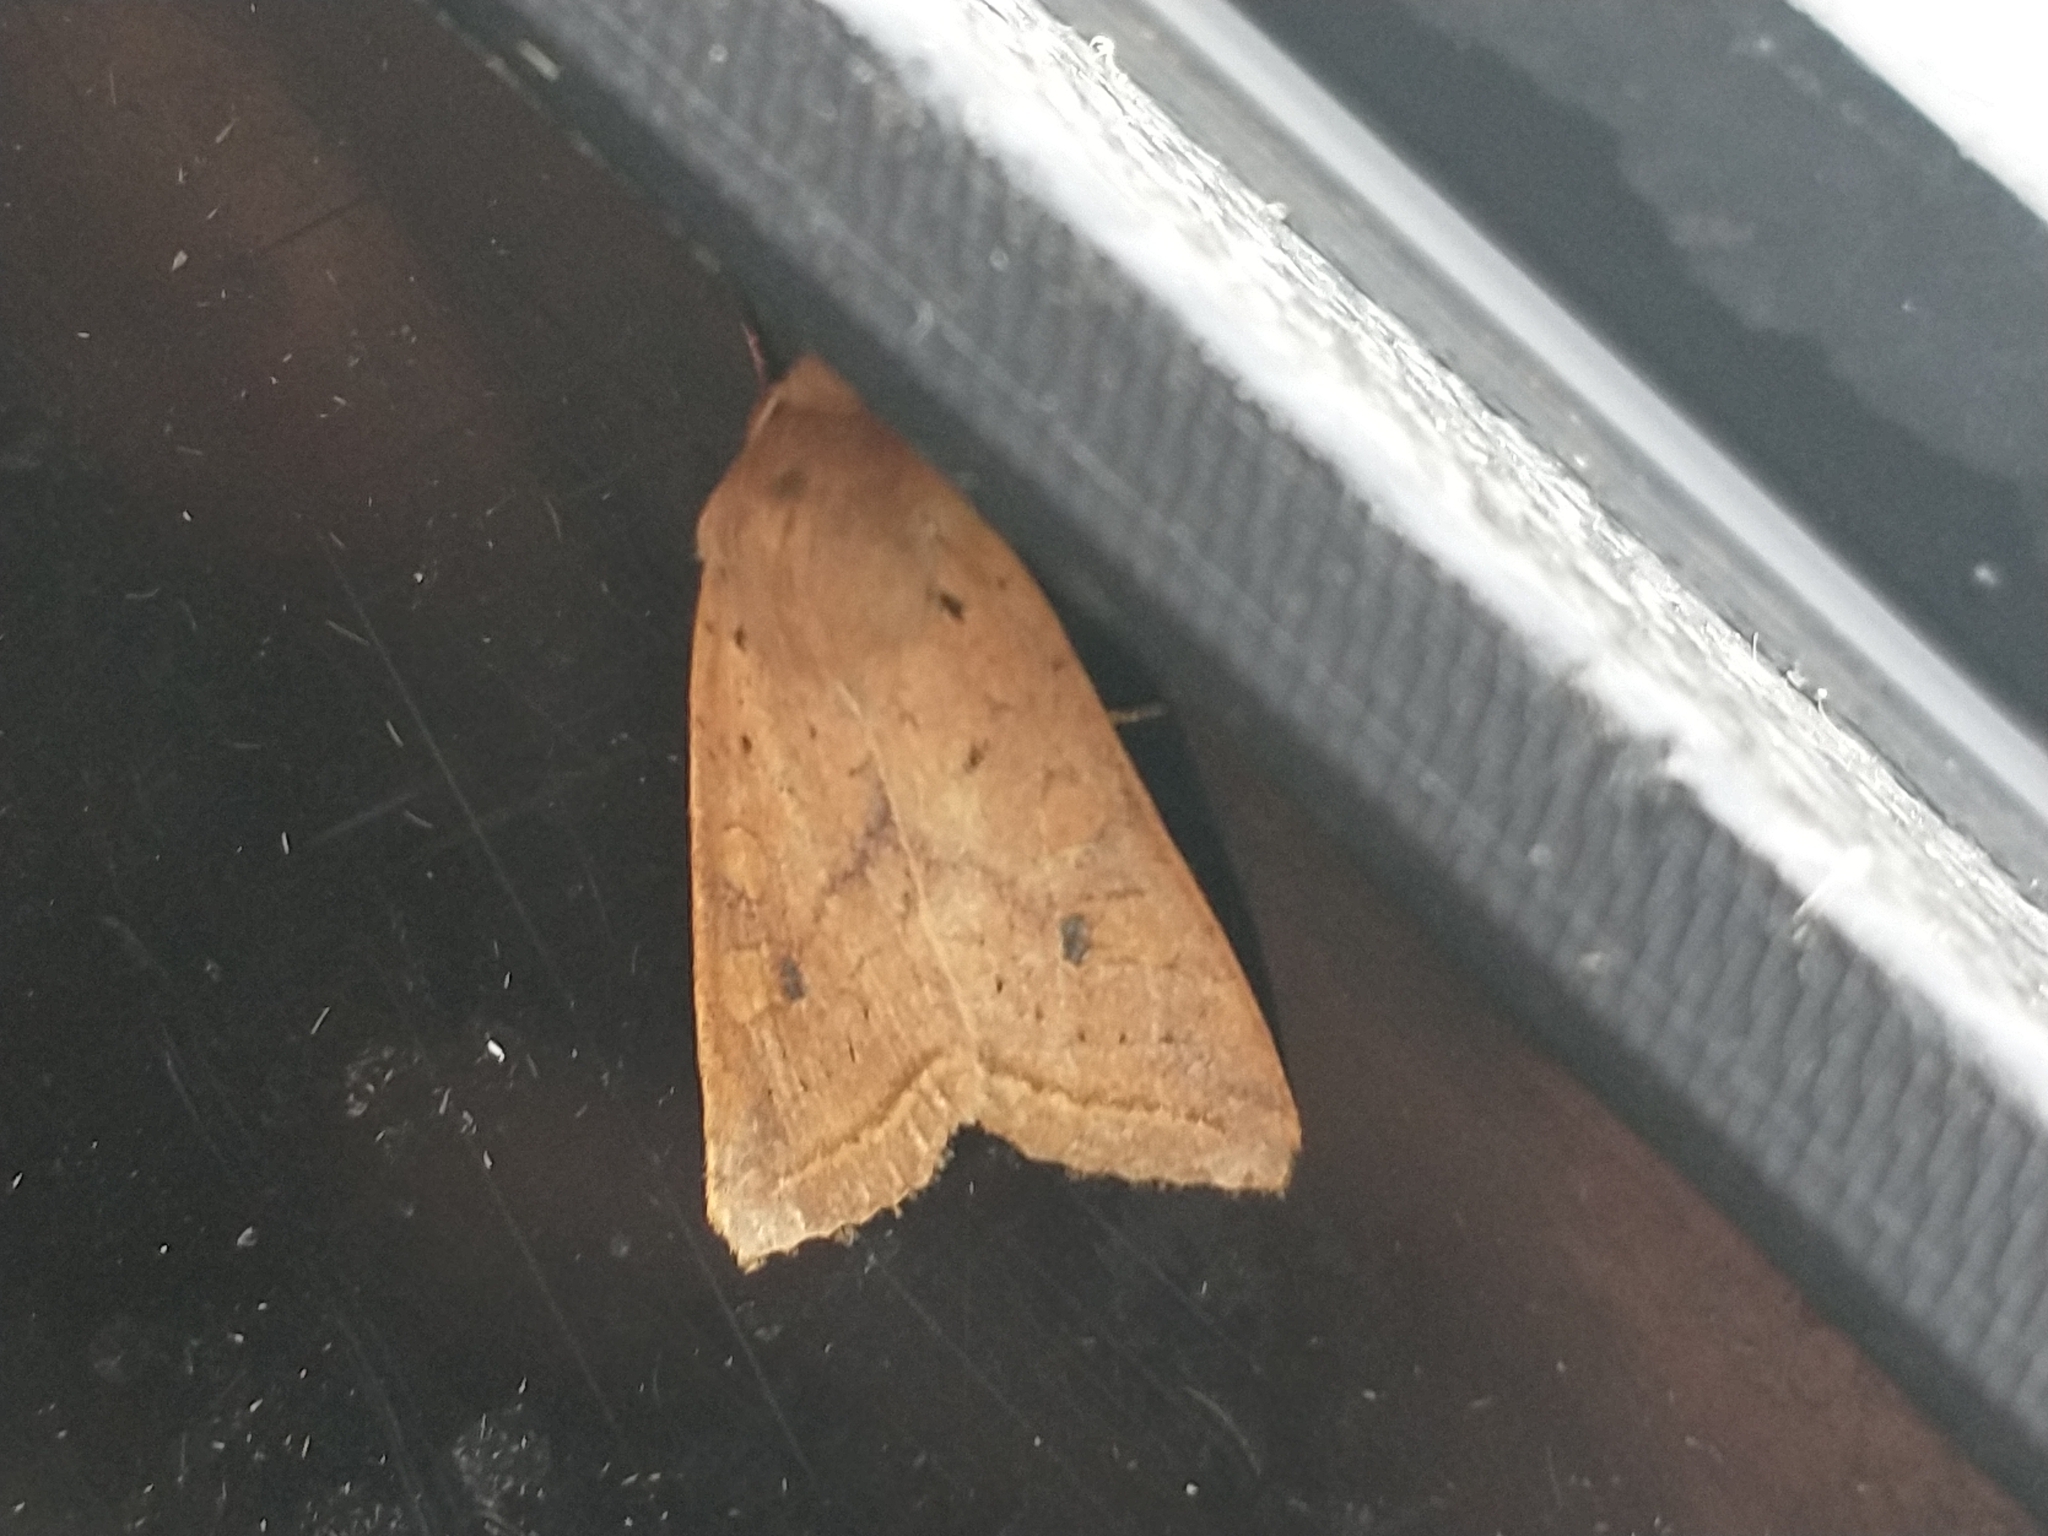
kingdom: Animalia
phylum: Arthropoda
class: Insecta
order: Lepidoptera
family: Noctuidae
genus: Agrochola
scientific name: Agrochola macilenta
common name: Yellow-line quaker
